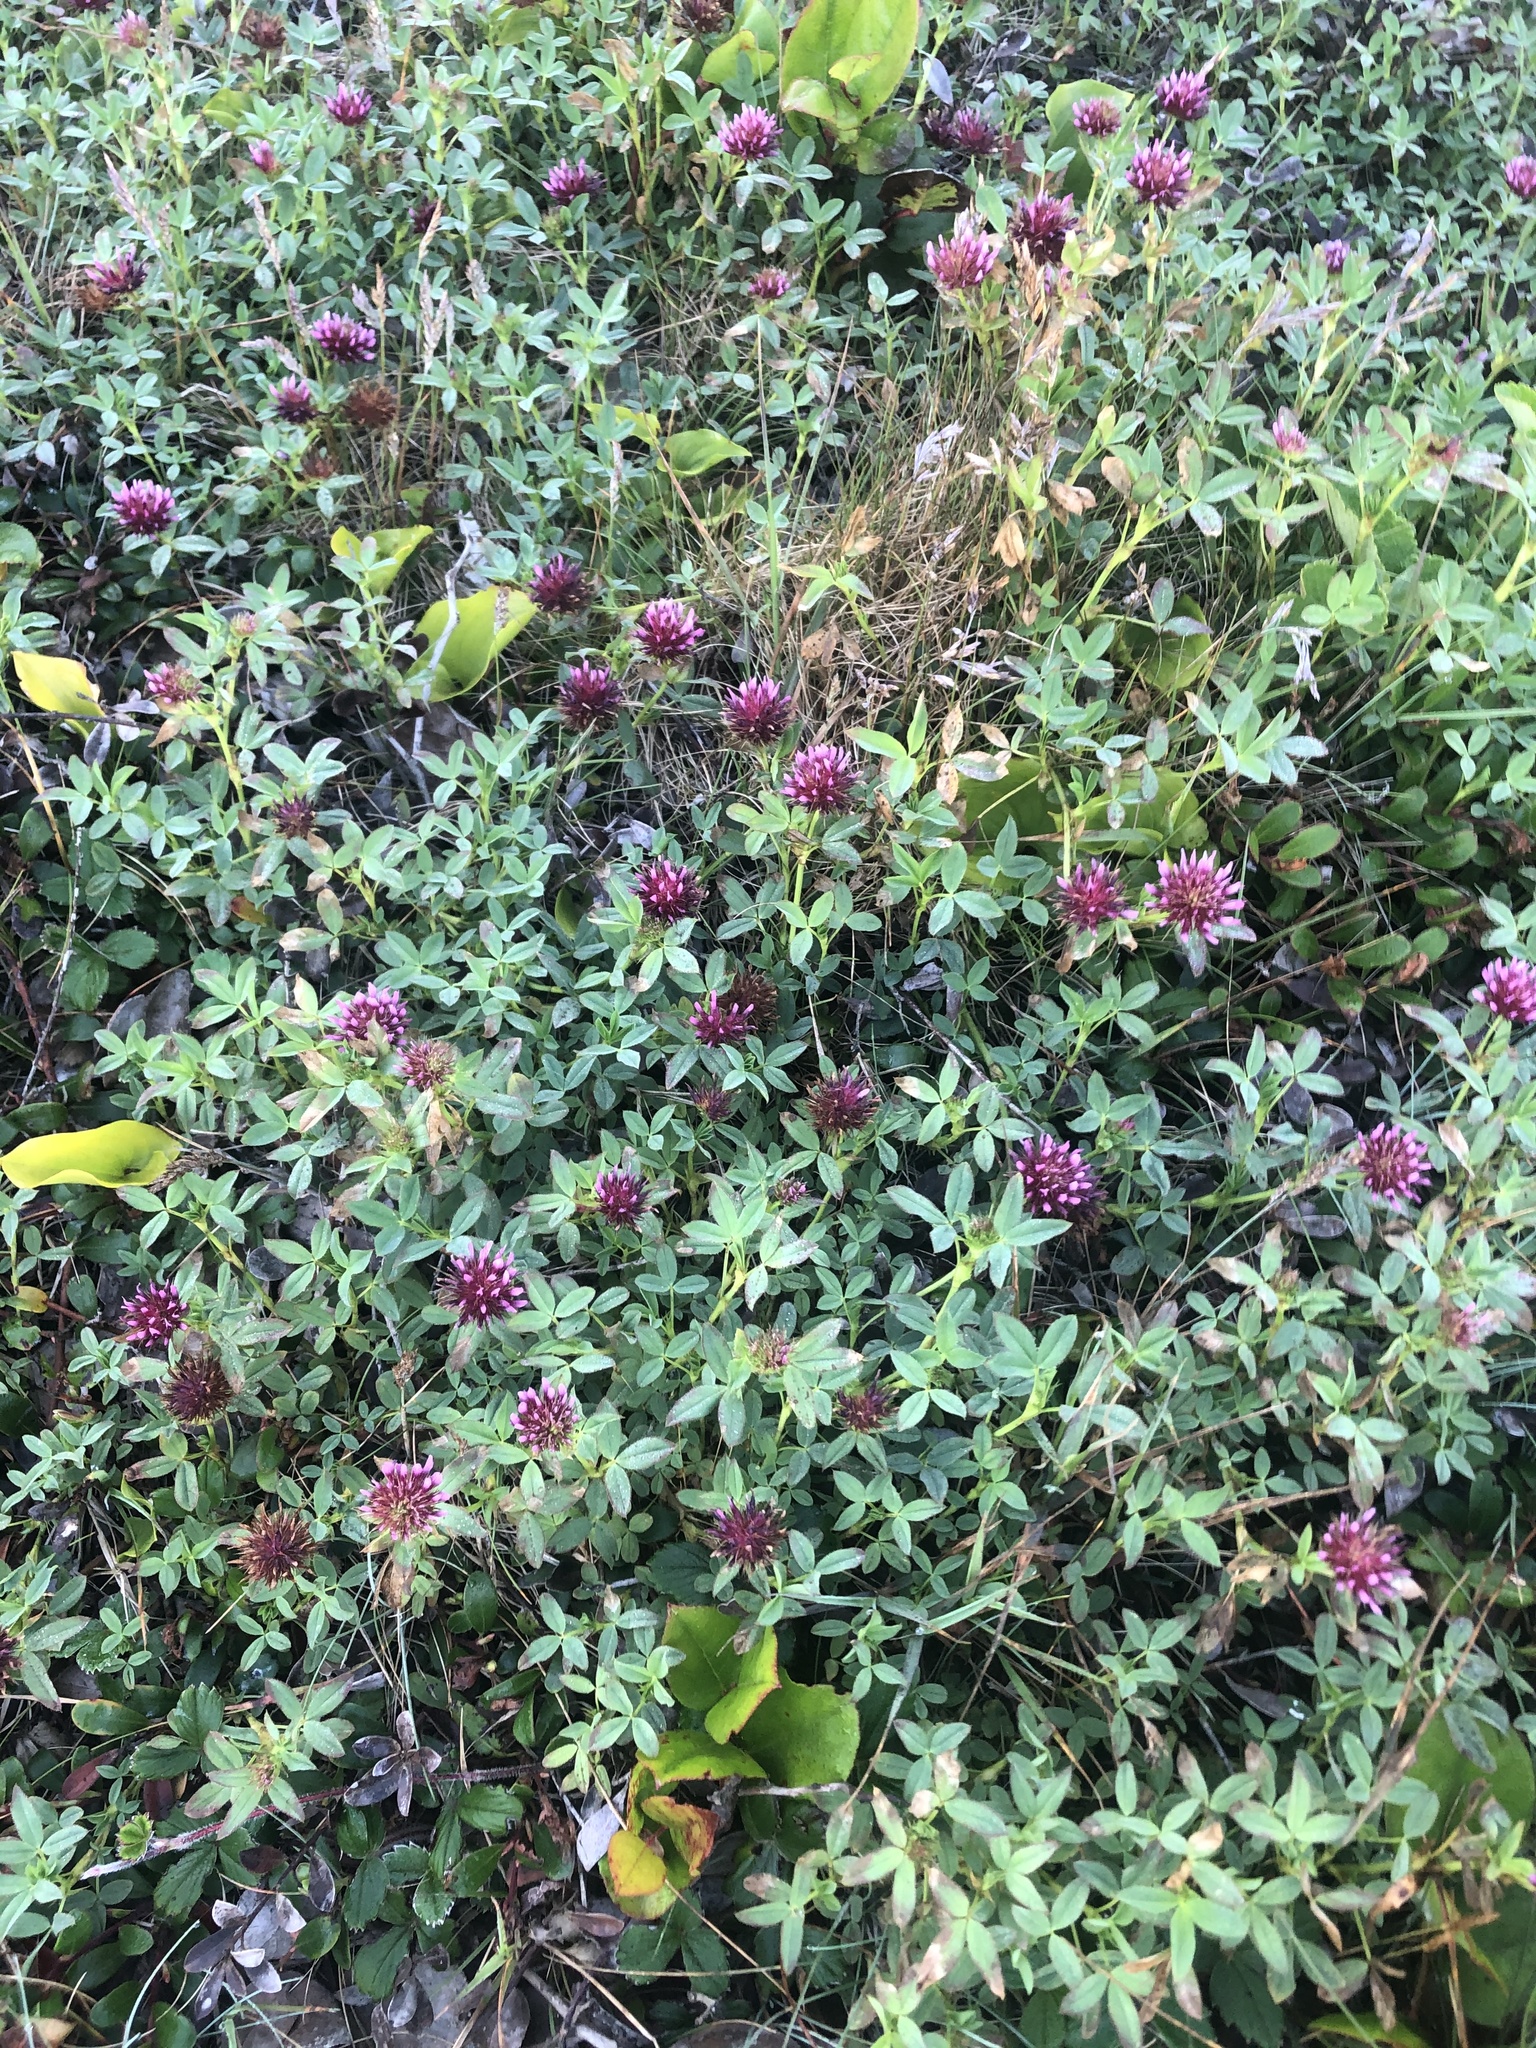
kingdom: Plantae
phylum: Tracheophyta
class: Magnoliopsida
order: Fabales
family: Fabaceae
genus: Trifolium
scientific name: Trifolium wormskioldii
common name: Springbank clover
